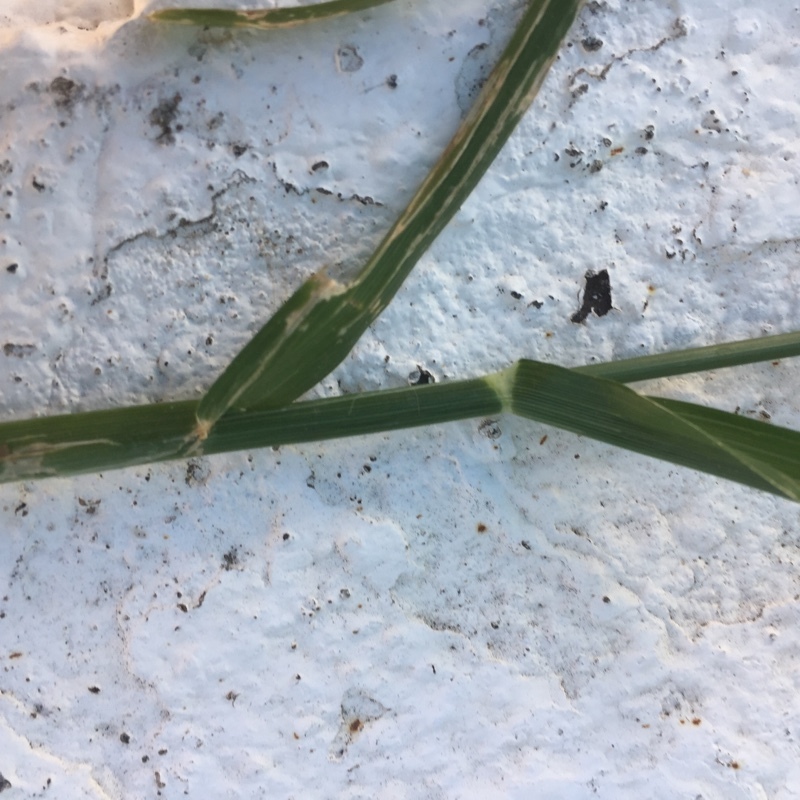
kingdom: Plantae
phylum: Tracheophyta
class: Liliopsida
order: Poales
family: Poaceae
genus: Eleusine
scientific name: Eleusine indica
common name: Yard-grass
